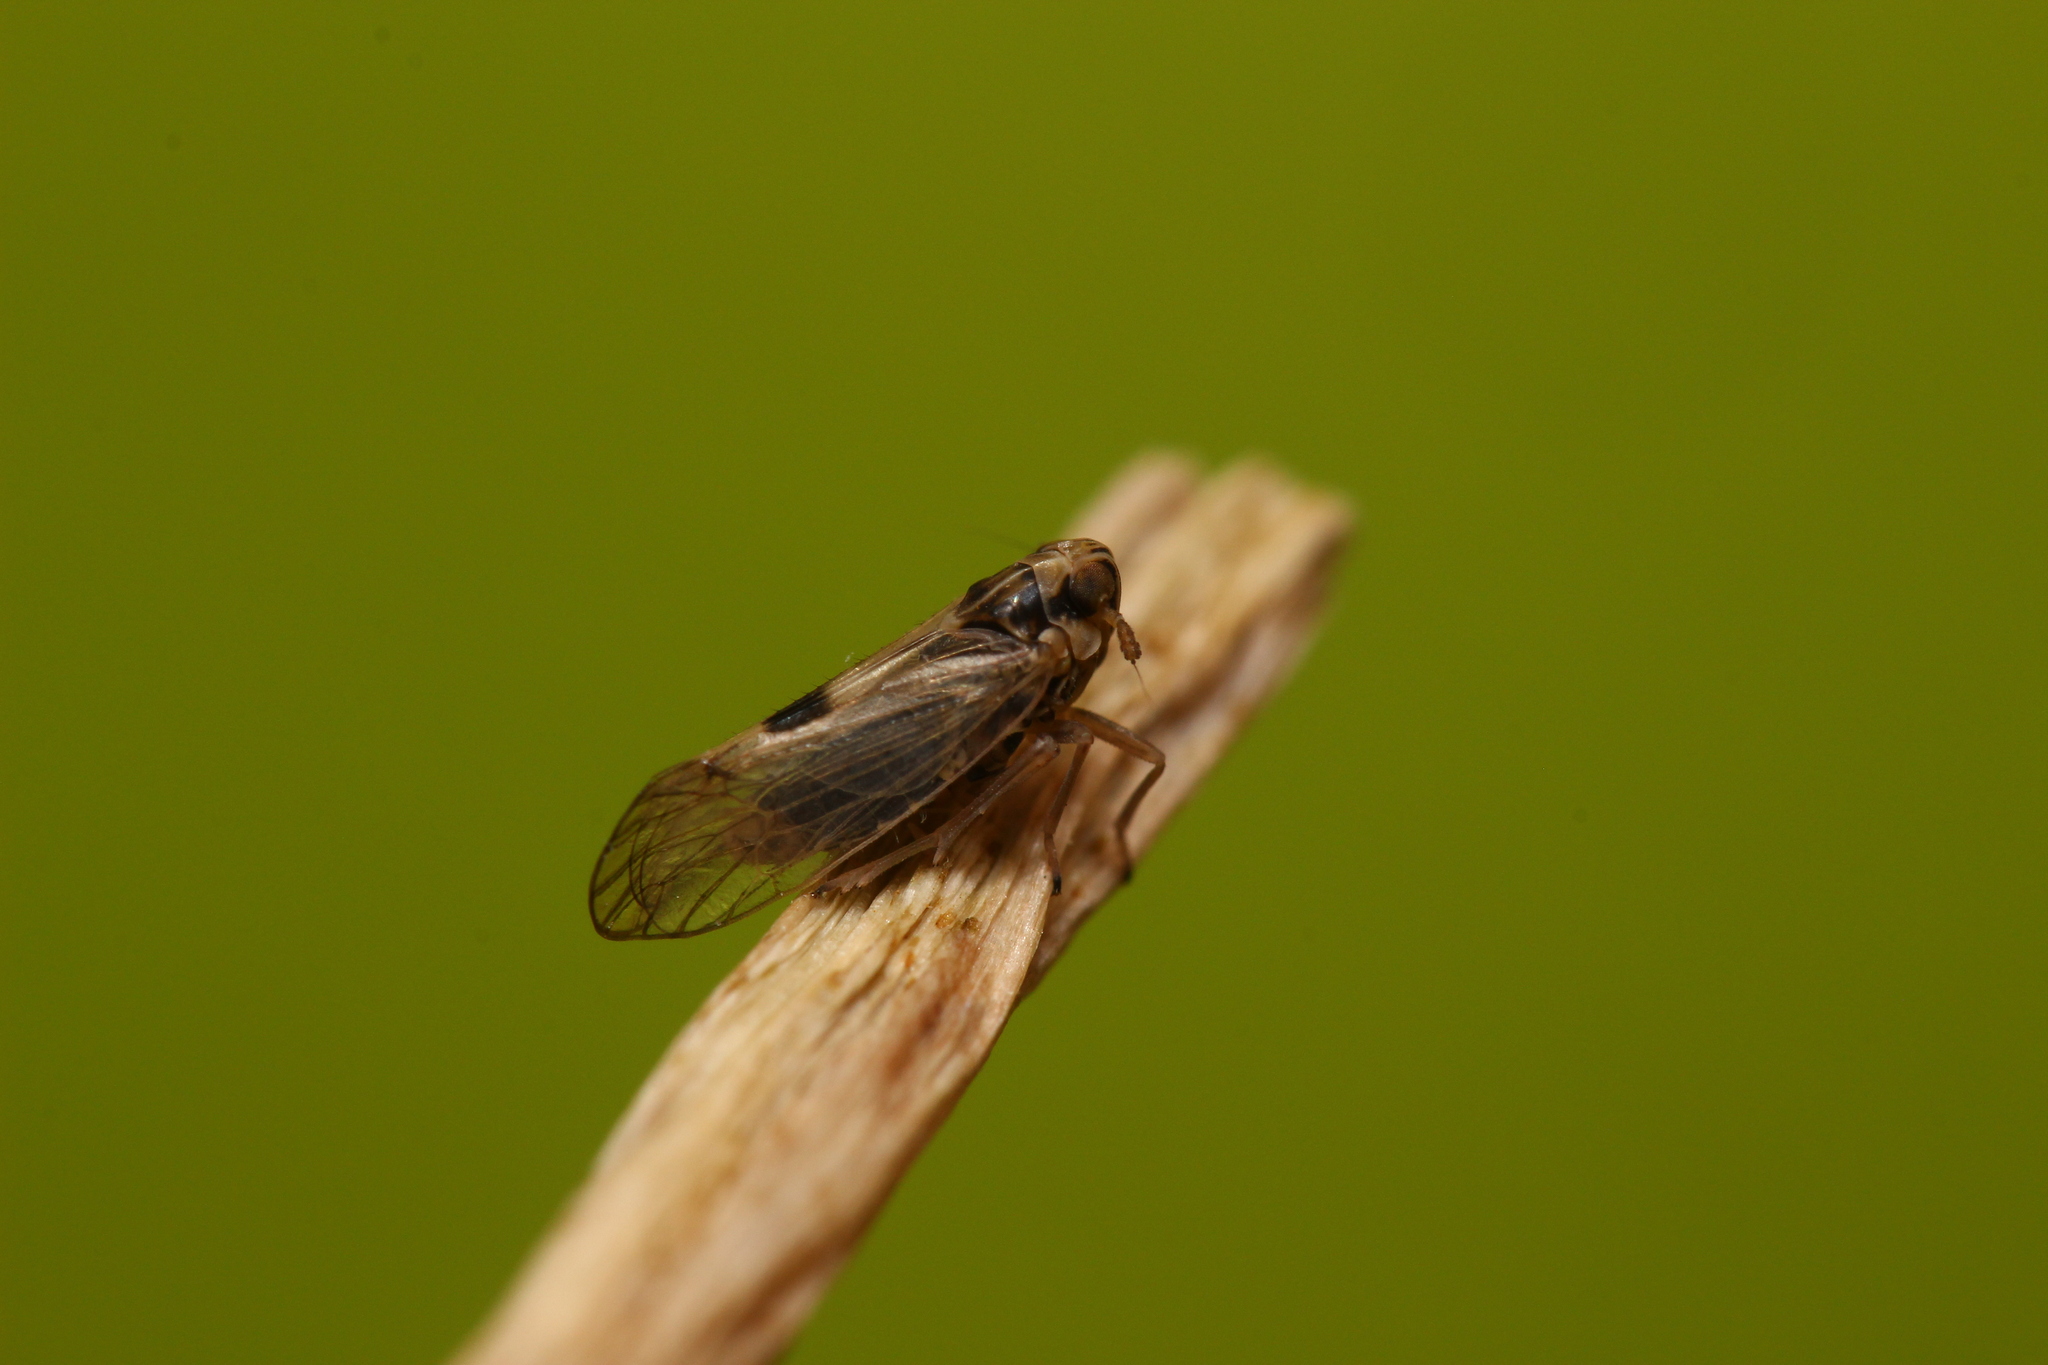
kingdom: Animalia
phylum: Arthropoda
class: Insecta
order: Hemiptera
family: Delphacidae
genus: Laodelphax
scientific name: Laodelphax striatellus
